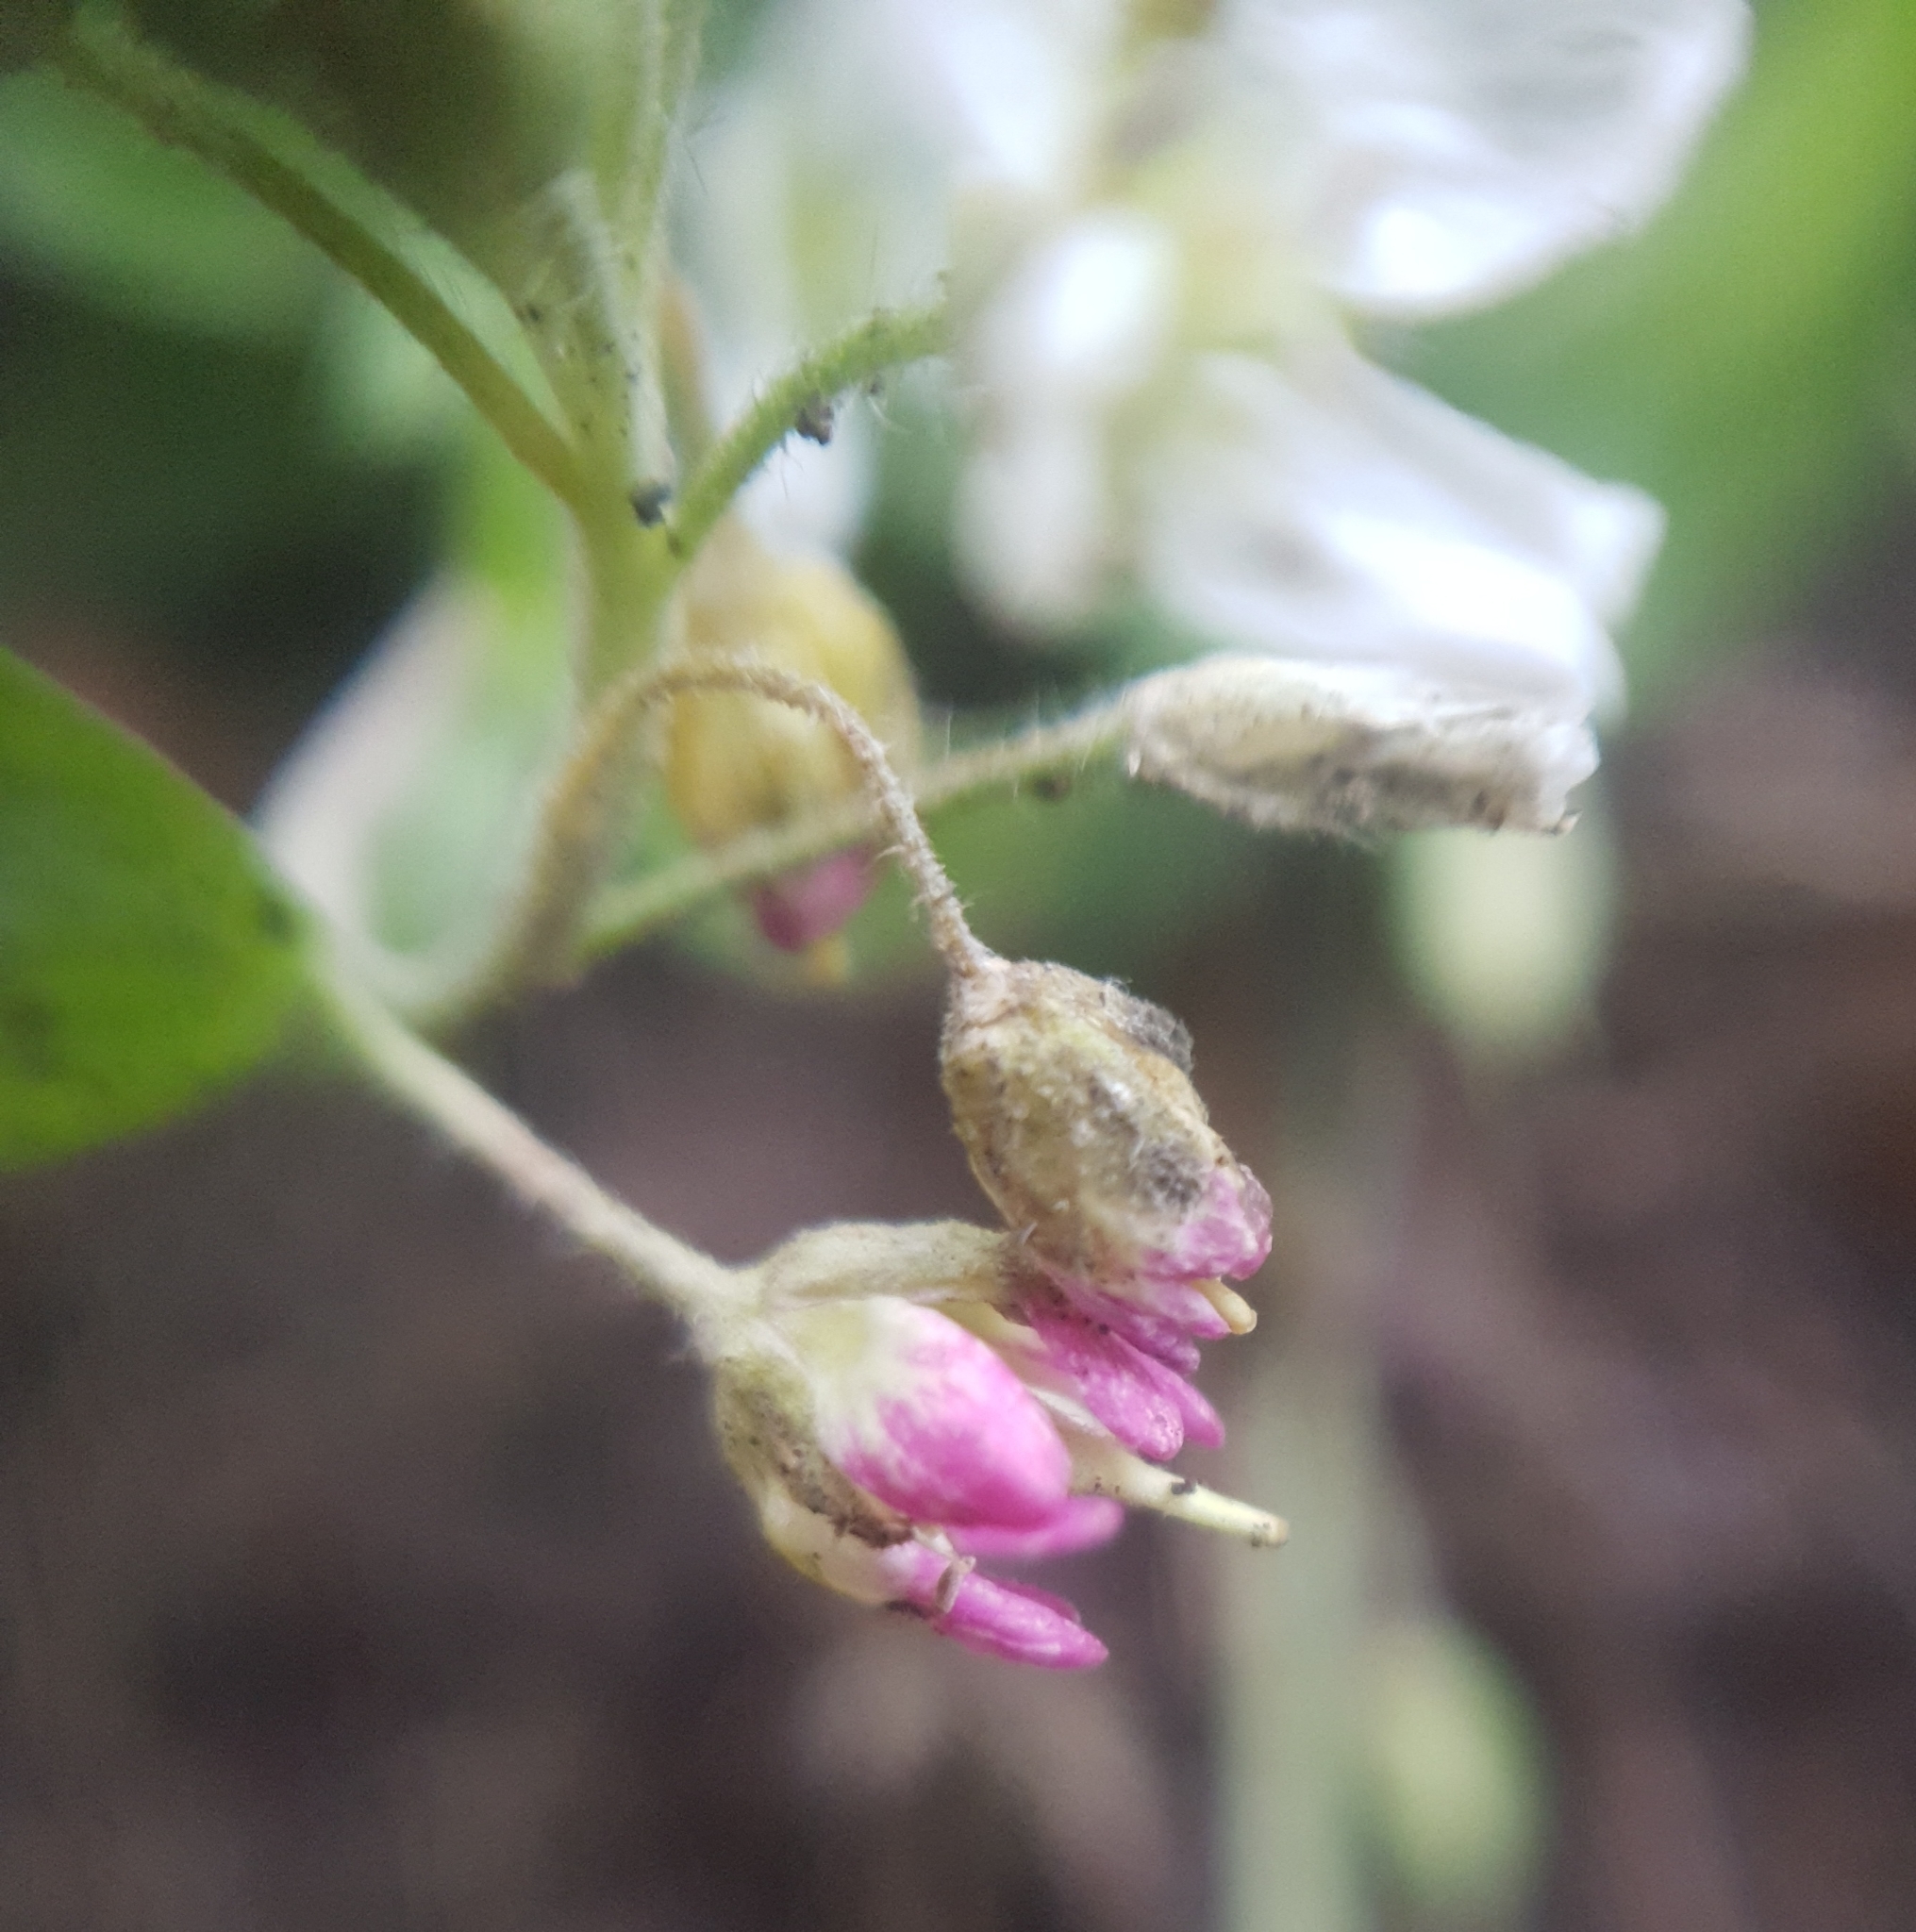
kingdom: Plantae
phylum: Tracheophyta
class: Magnoliopsida
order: Brassicales
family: Brassicaceae
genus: Berteroa
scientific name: Berteroa incana
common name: Hoary alison
